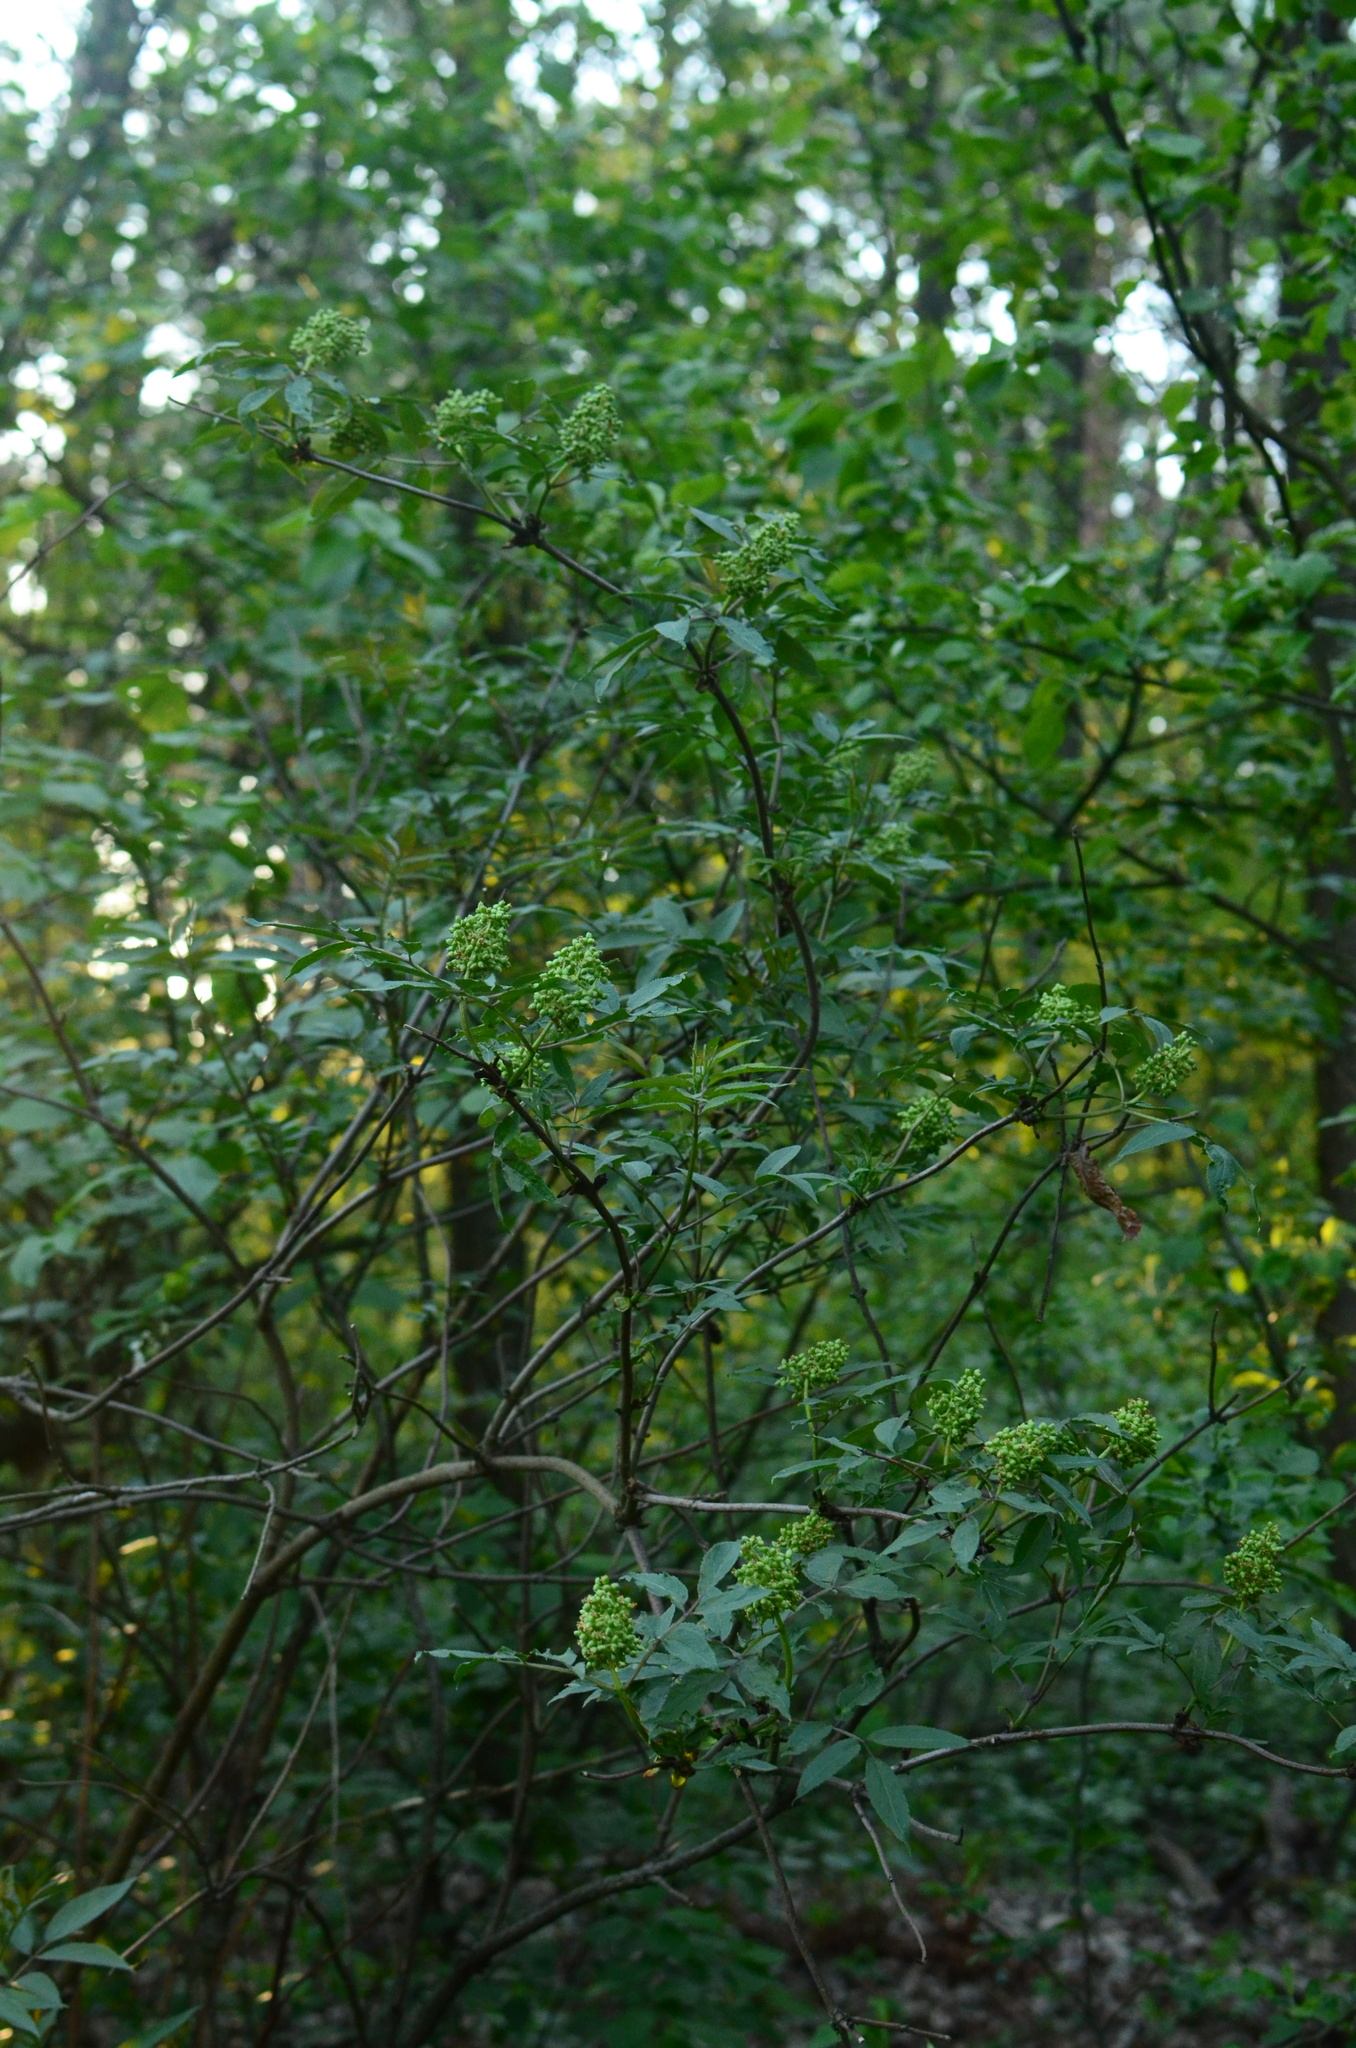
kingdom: Plantae
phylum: Tracheophyta
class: Magnoliopsida
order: Dipsacales
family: Viburnaceae
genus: Sambucus
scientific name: Sambucus racemosa
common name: Red-berried elder
